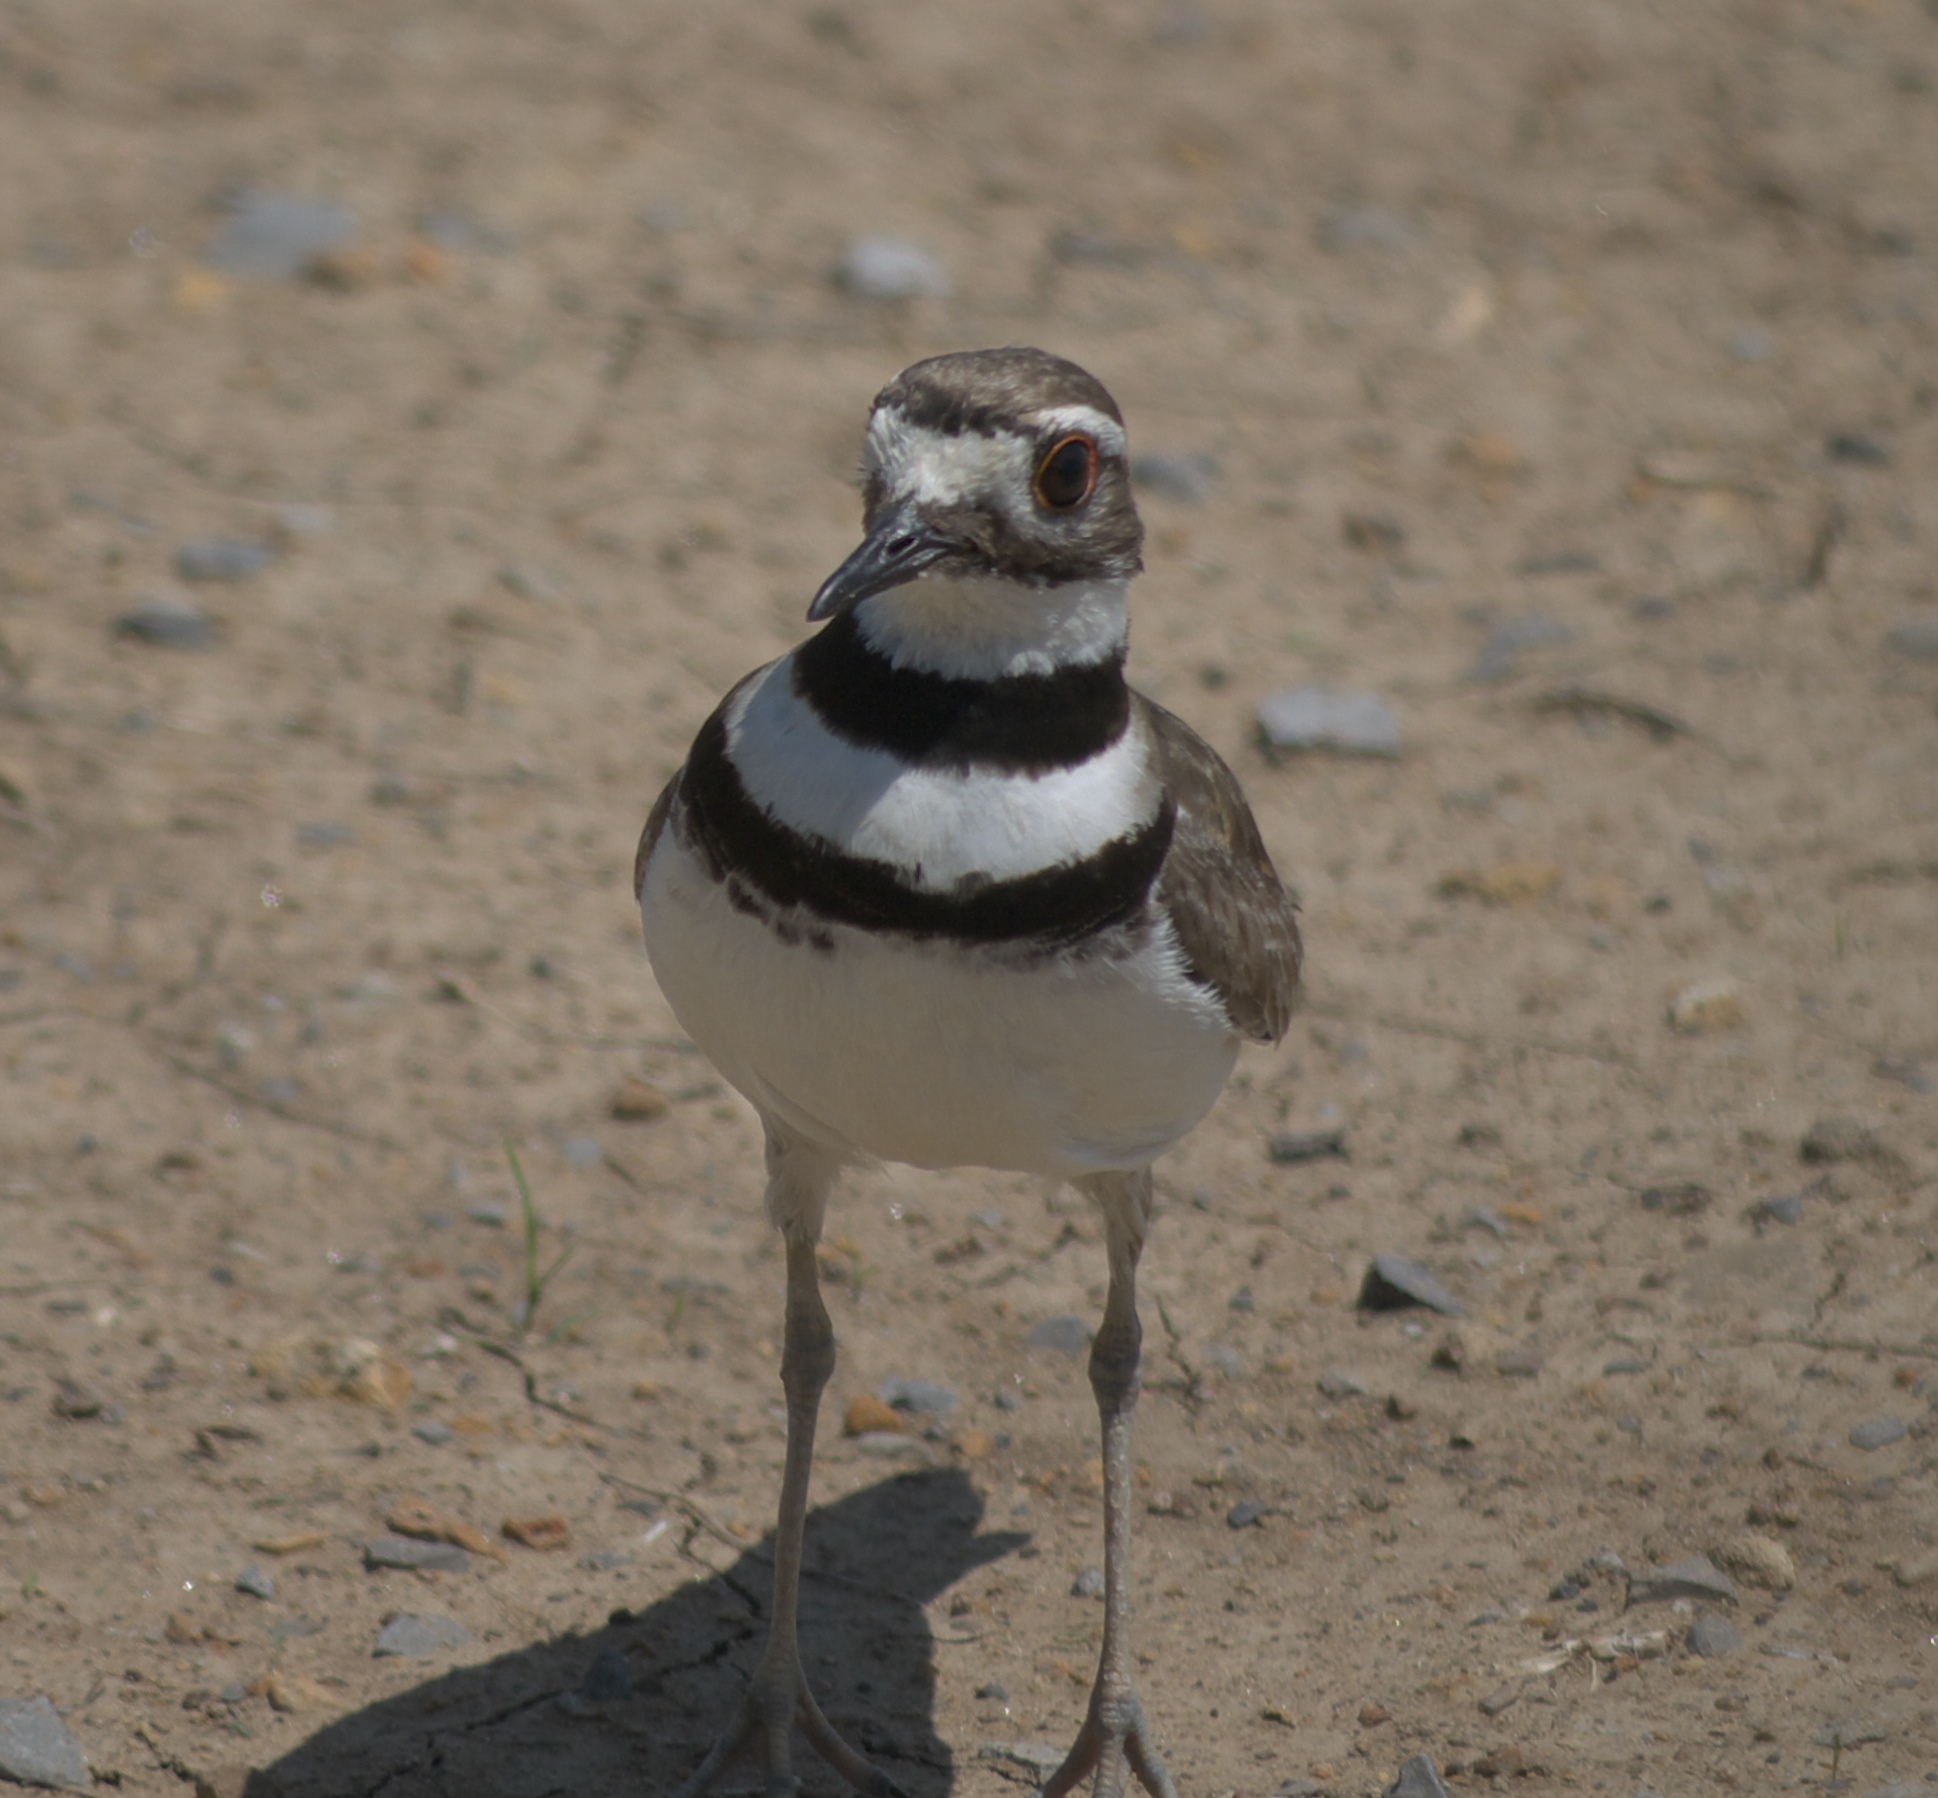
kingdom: Animalia
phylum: Chordata
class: Aves
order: Charadriiformes
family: Charadriidae
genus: Charadrius
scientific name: Charadrius vociferus
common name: Killdeer
